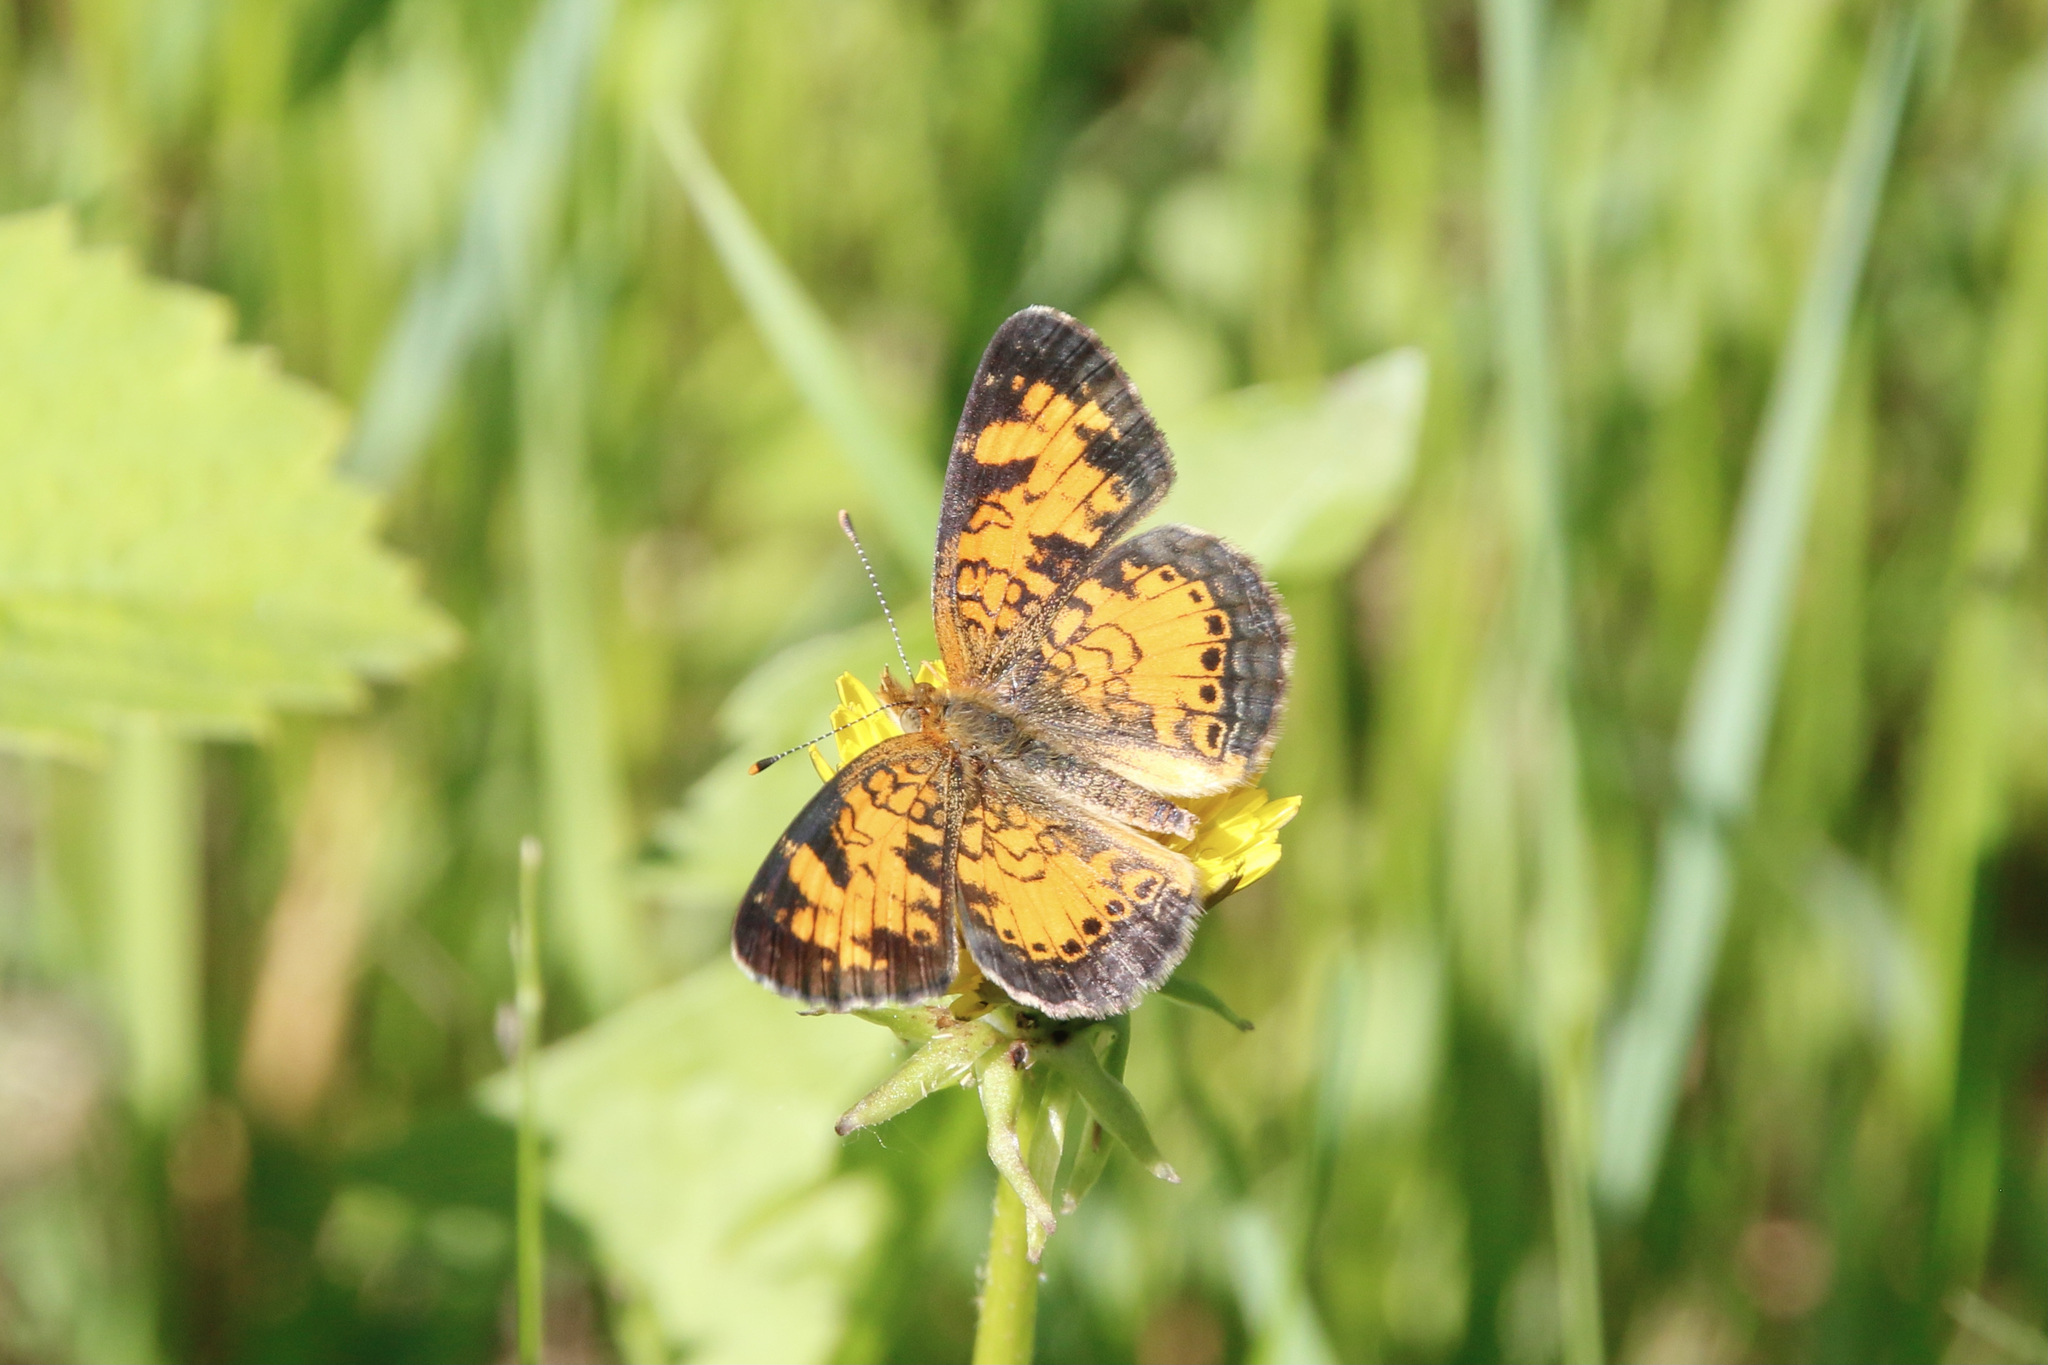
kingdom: Animalia
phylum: Arthropoda
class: Insecta
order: Lepidoptera
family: Nymphalidae
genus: Phyciodes
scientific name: Phyciodes tharos
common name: Pearl crescent
